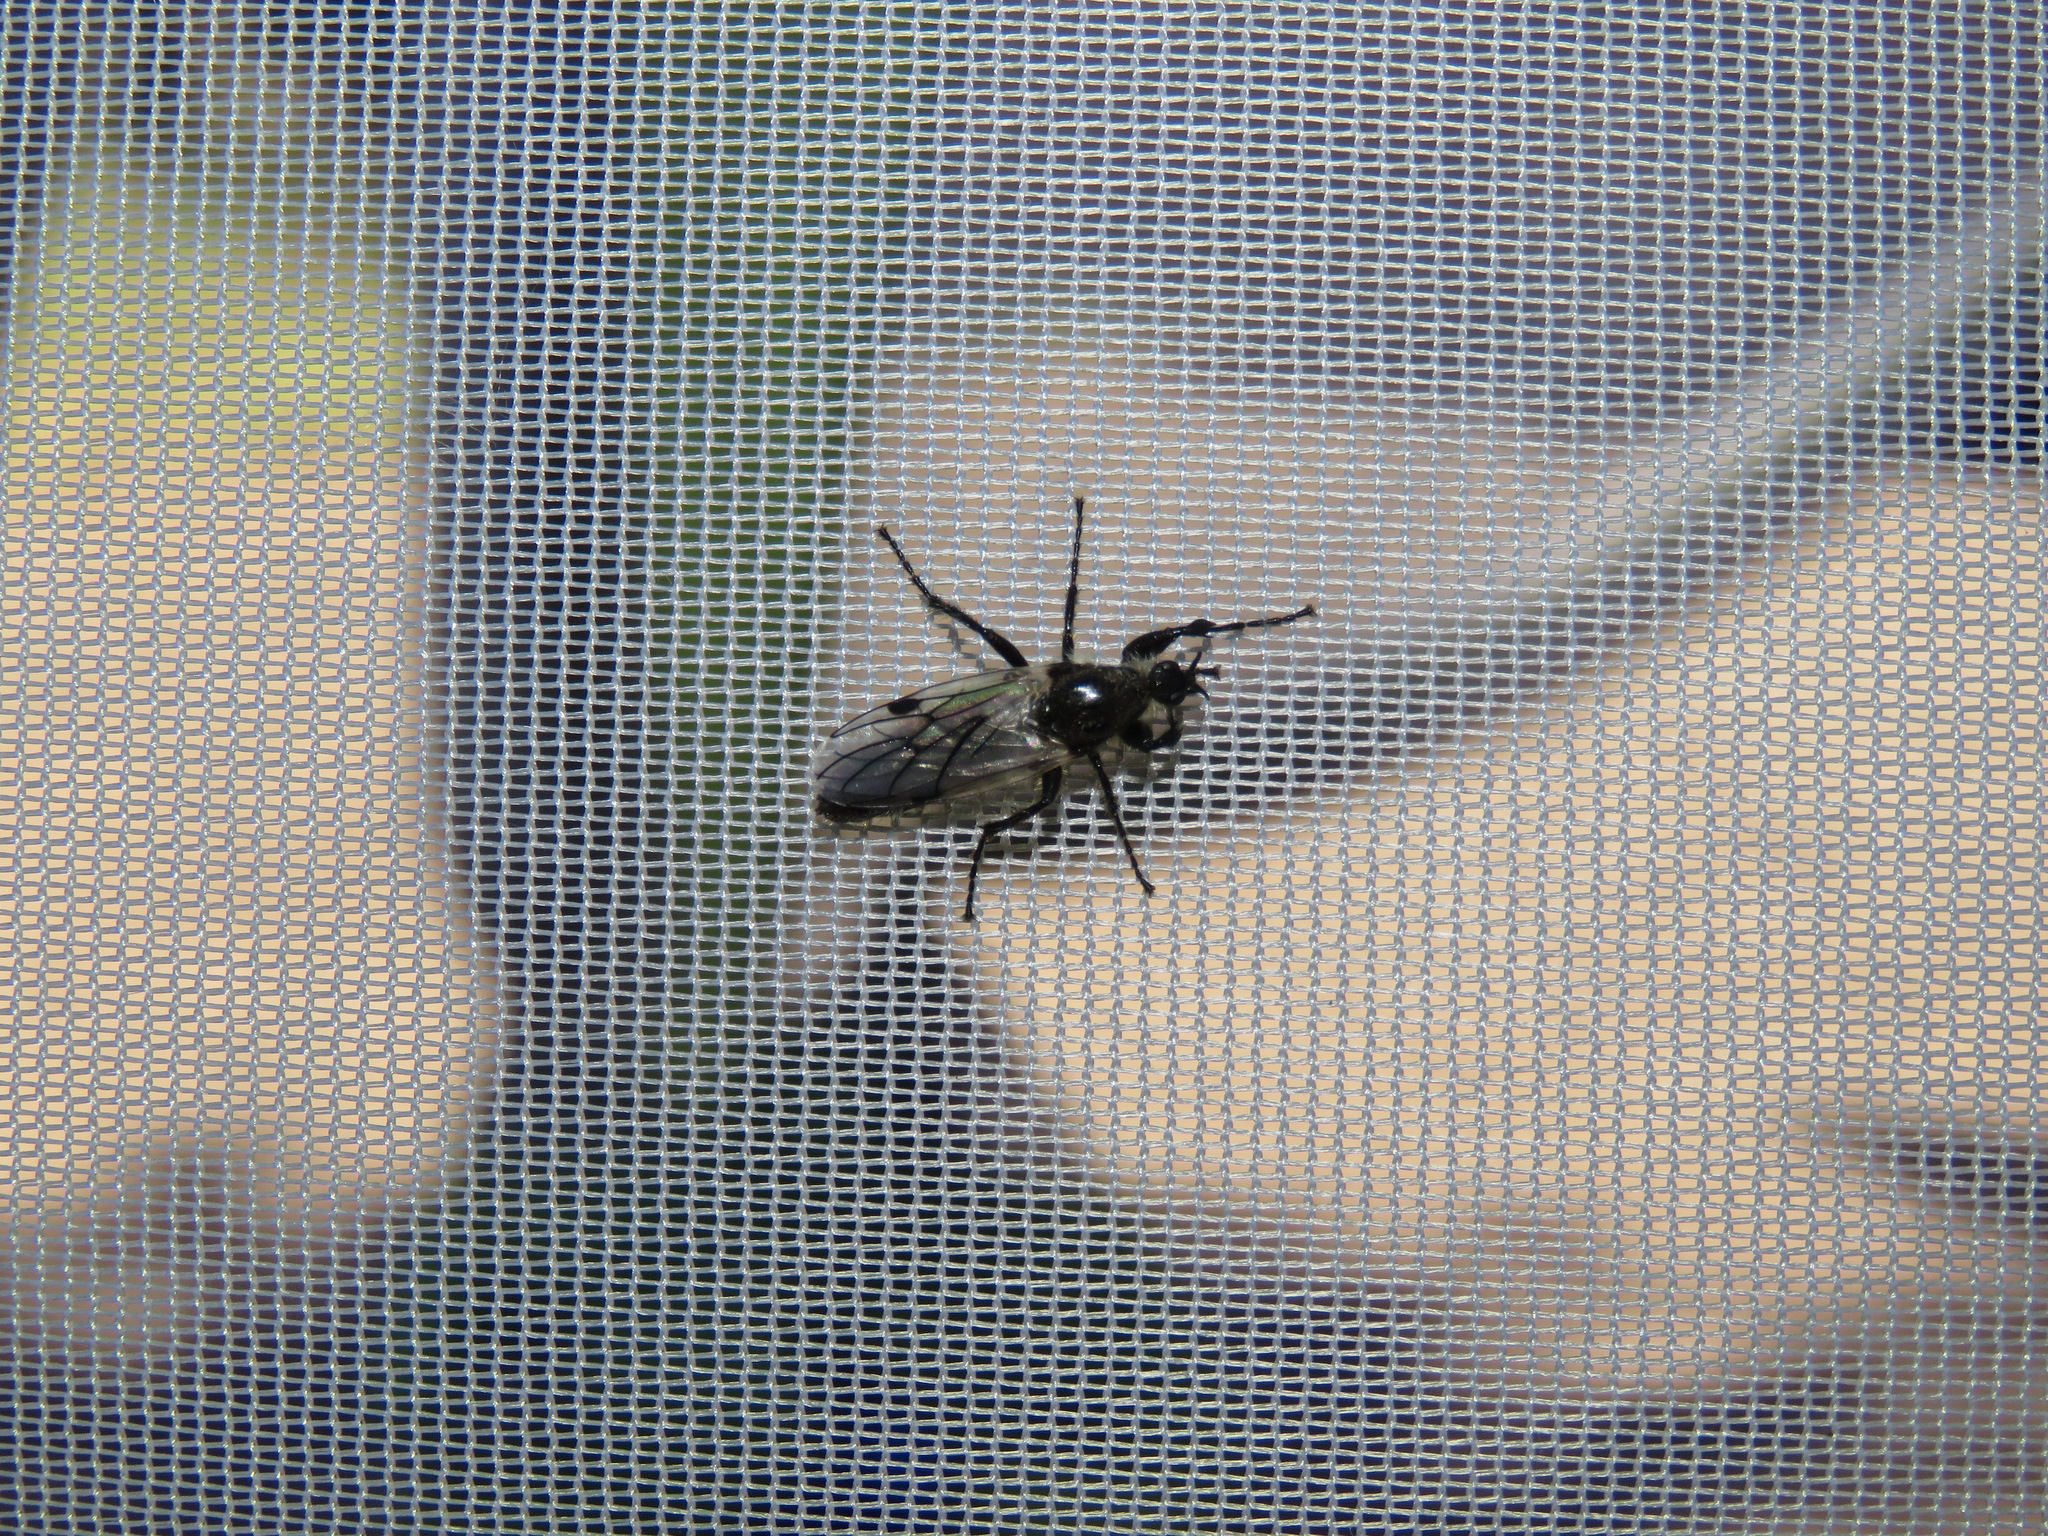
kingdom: Animalia
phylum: Arthropoda
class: Insecta
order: Diptera
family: Bibionidae
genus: Bibio
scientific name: Bibio albipennis
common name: White-winged march fly
